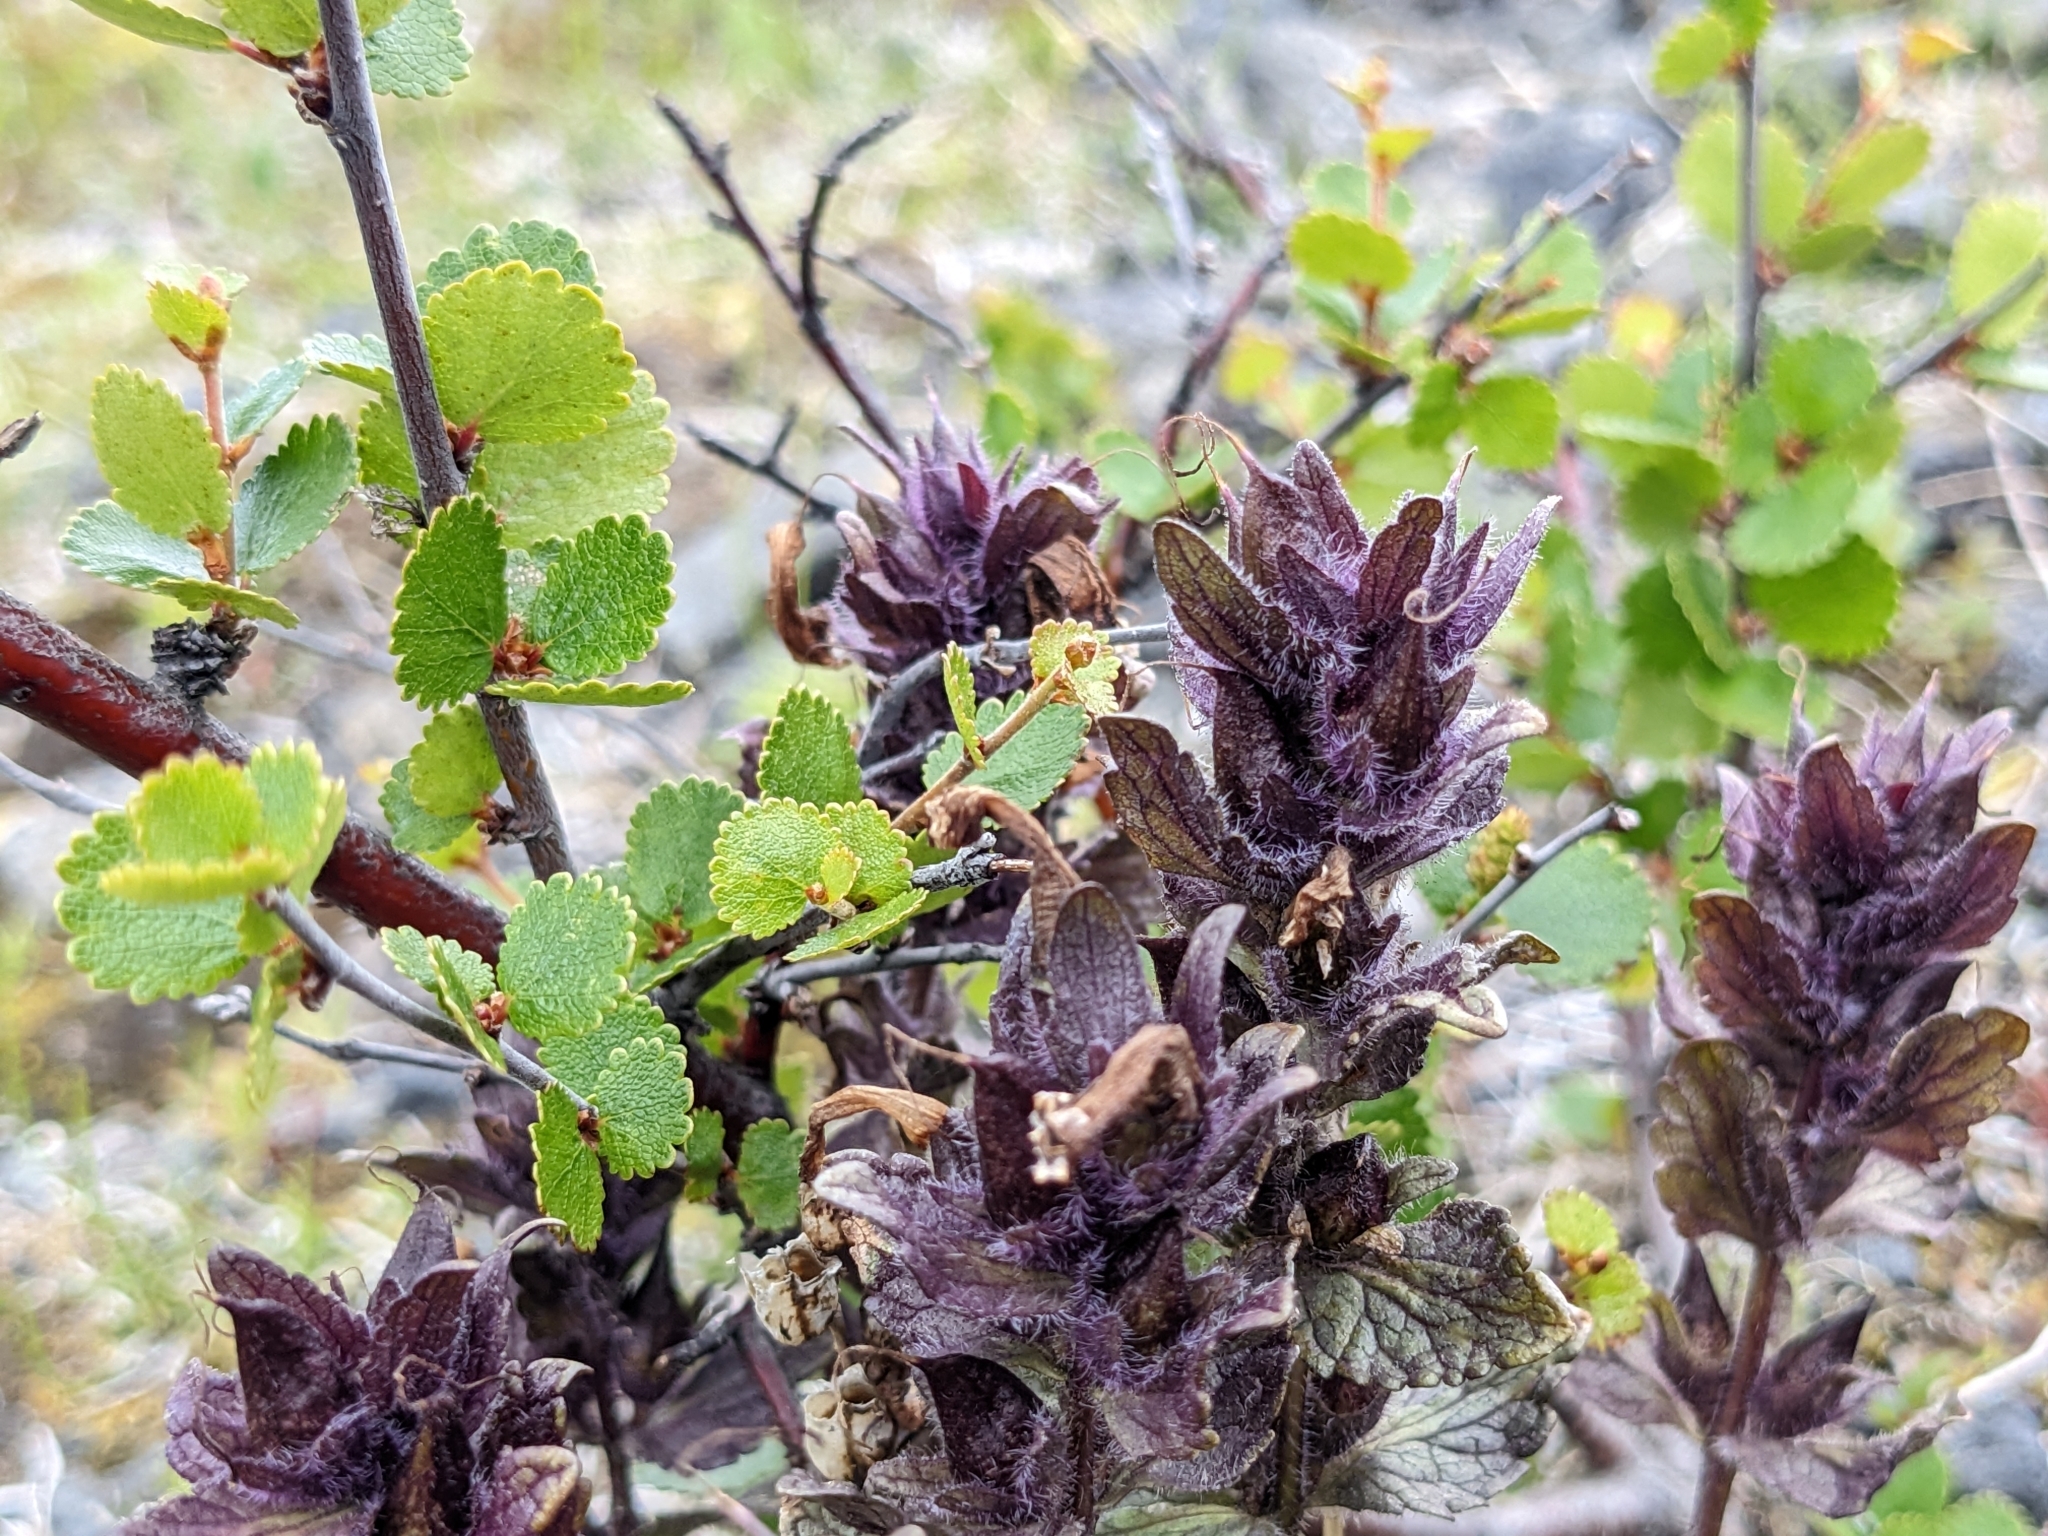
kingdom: Plantae
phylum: Tracheophyta
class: Magnoliopsida
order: Lamiales
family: Orobanchaceae
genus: Bartsia
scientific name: Bartsia alpina
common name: Alpine bartsia
